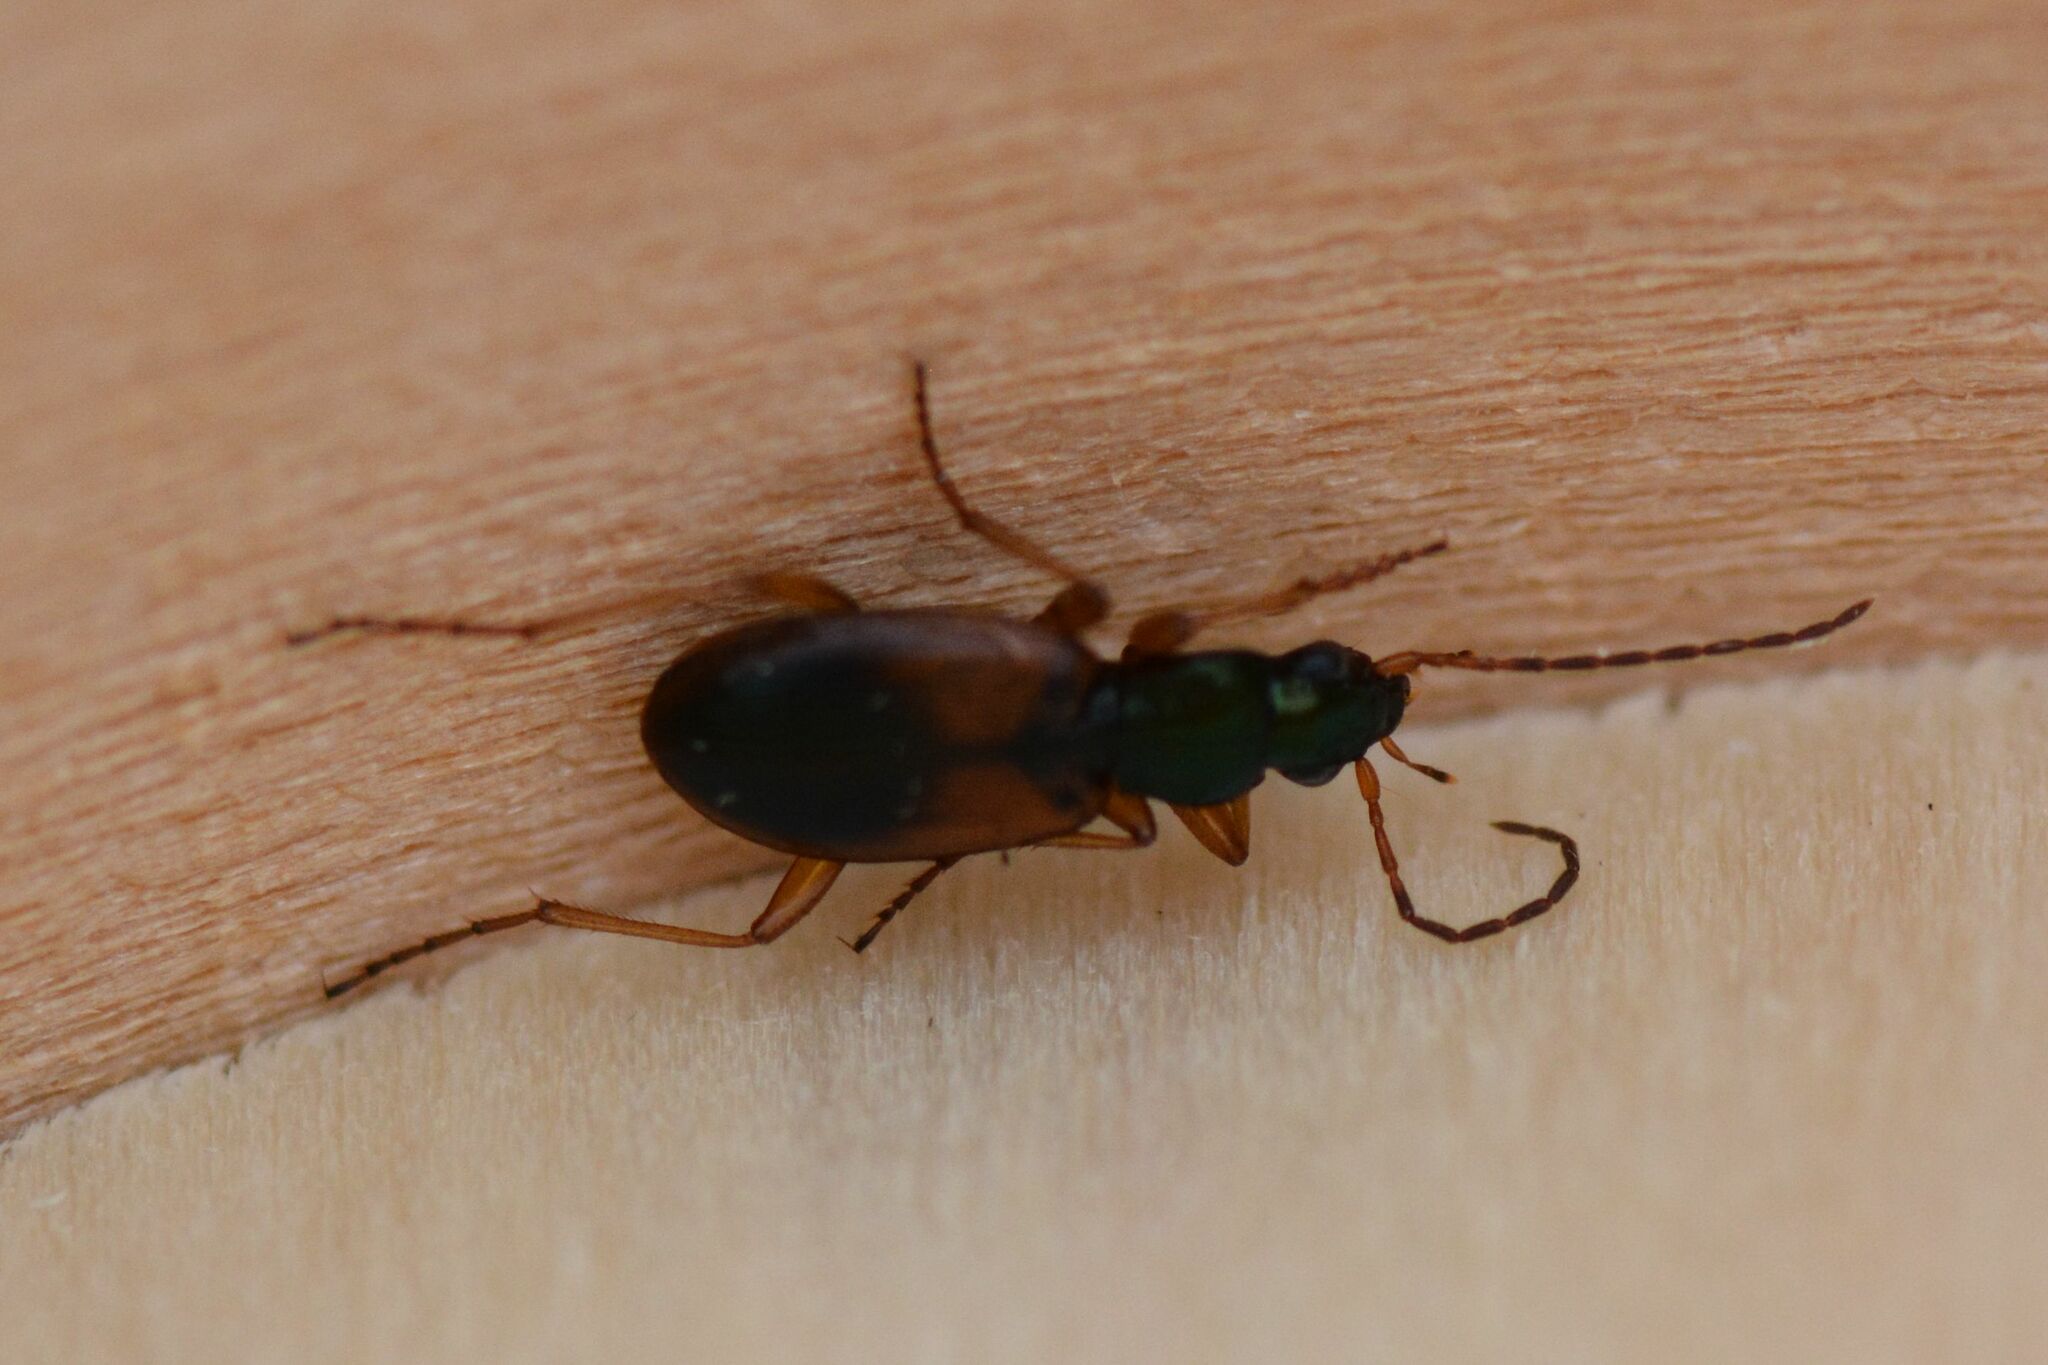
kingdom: Animalia
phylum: Arthropoda
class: Insecta
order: Coleoptera
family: Carabidae
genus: Anchomenus
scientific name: Anchomenus dorsalis
